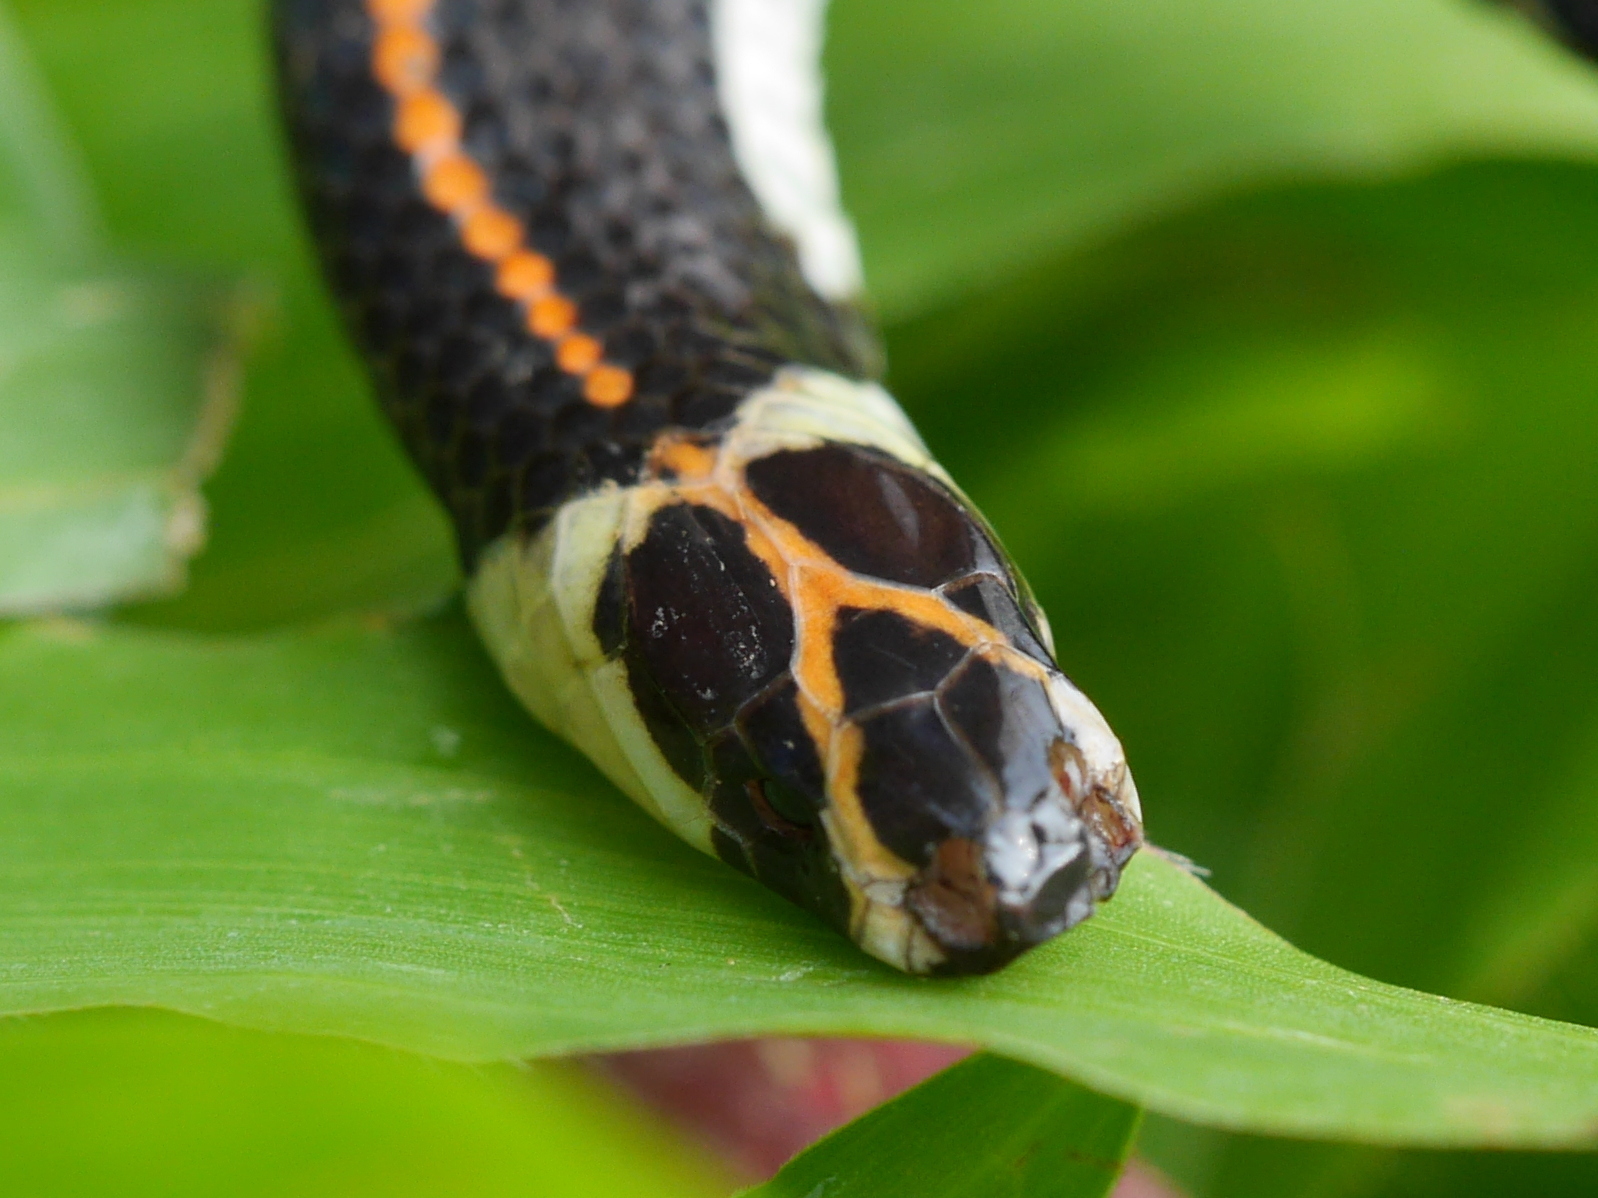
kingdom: Animalia
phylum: Chordata
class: Squamata
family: Elapidae
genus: Calliophis
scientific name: Calliophis intestinalis
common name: Striped coral snake
